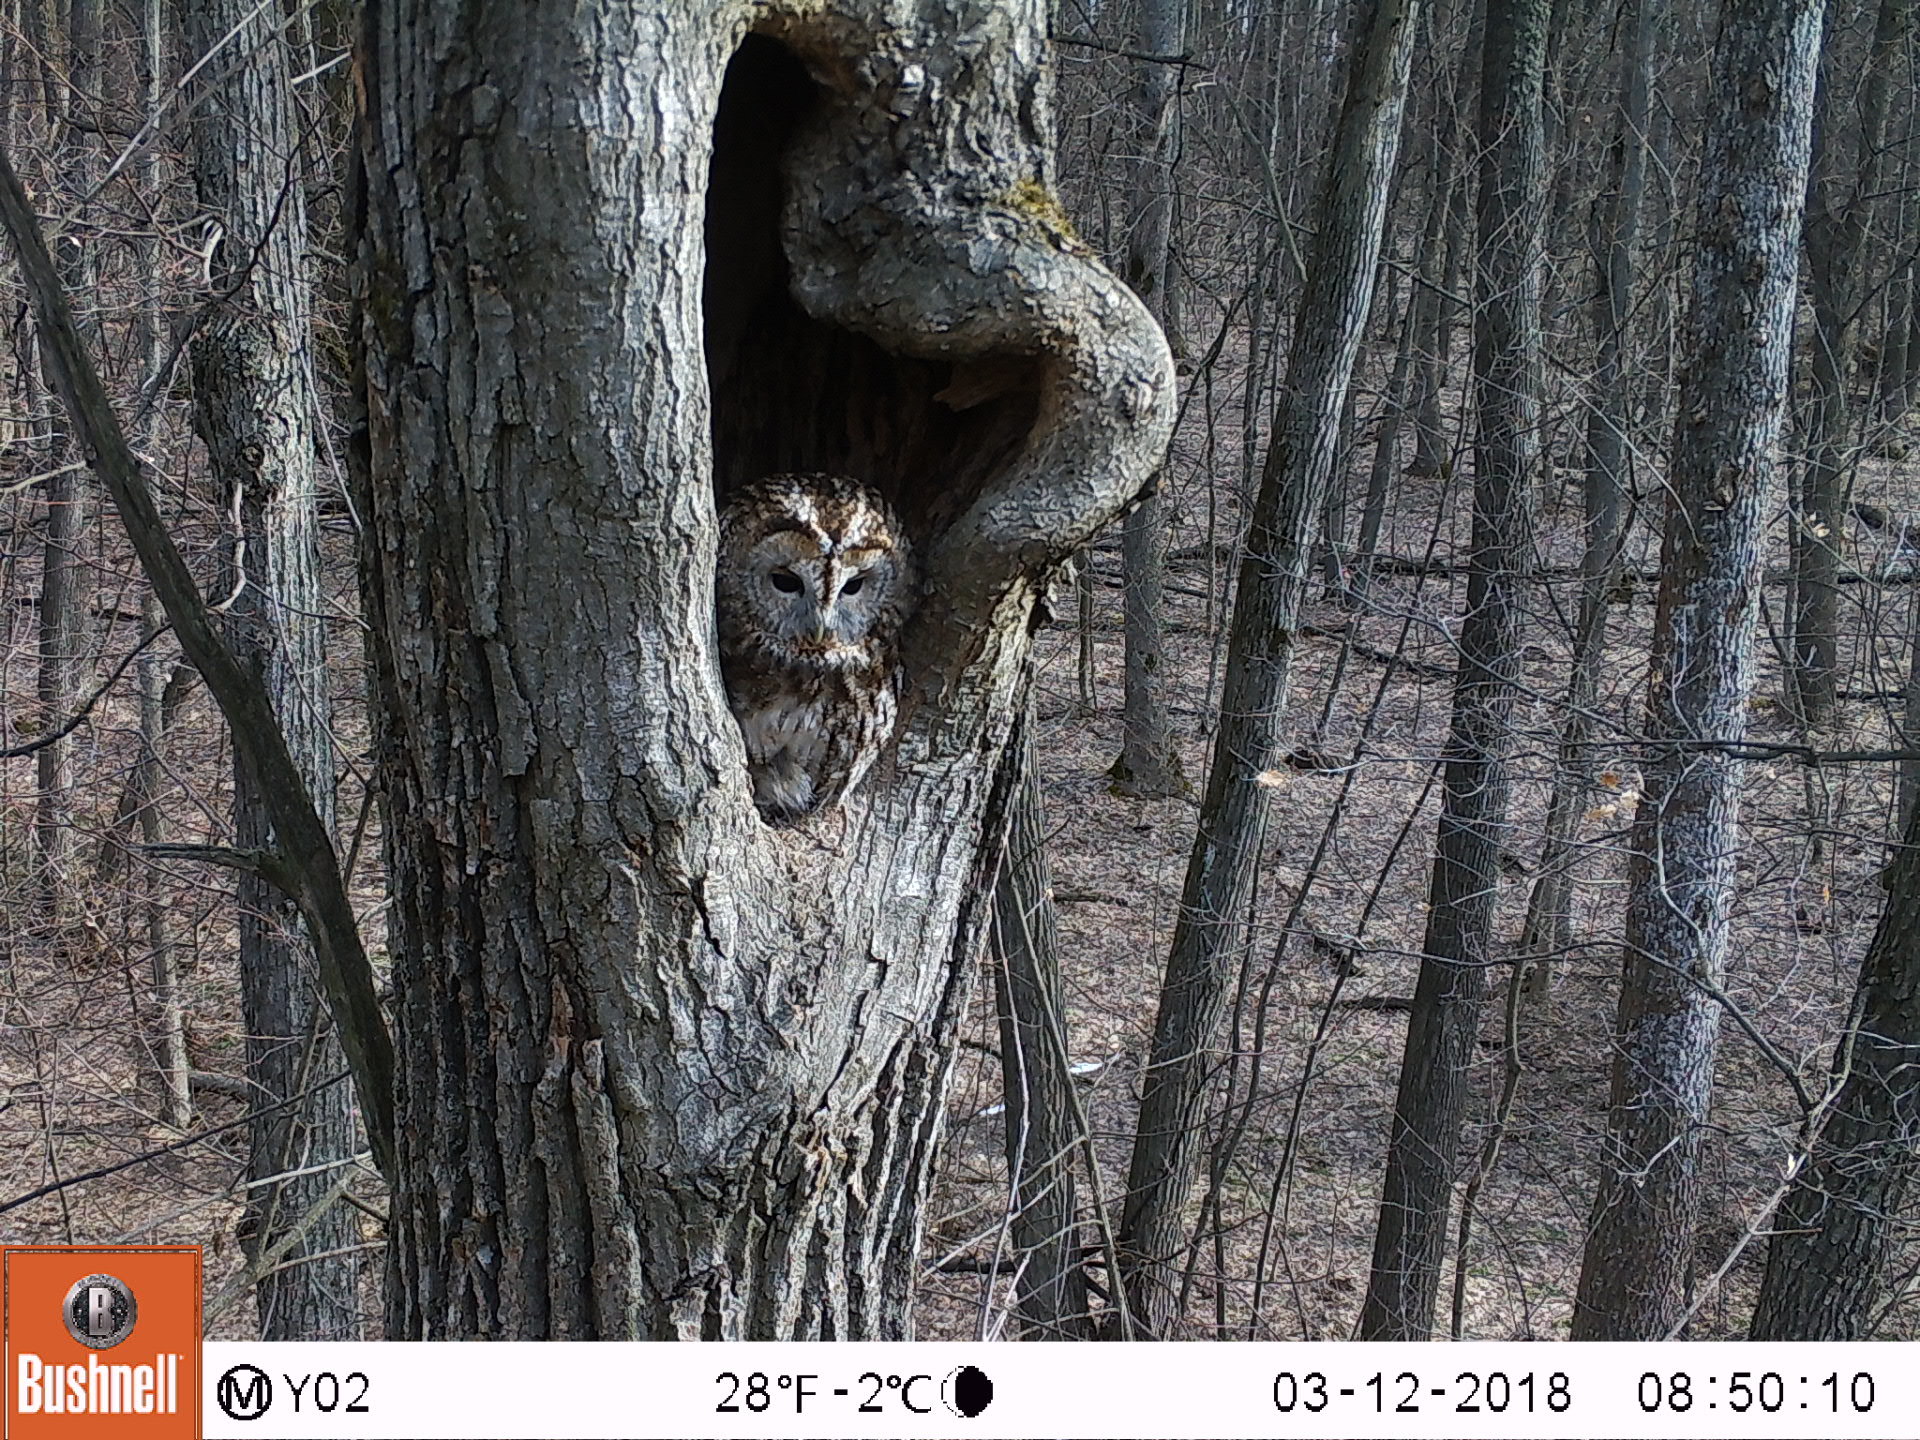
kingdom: Animalia
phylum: Chordata
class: Aves
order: Strigiformes
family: Strigidae
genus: Strix
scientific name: Strix aluco
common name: Tawny owl
